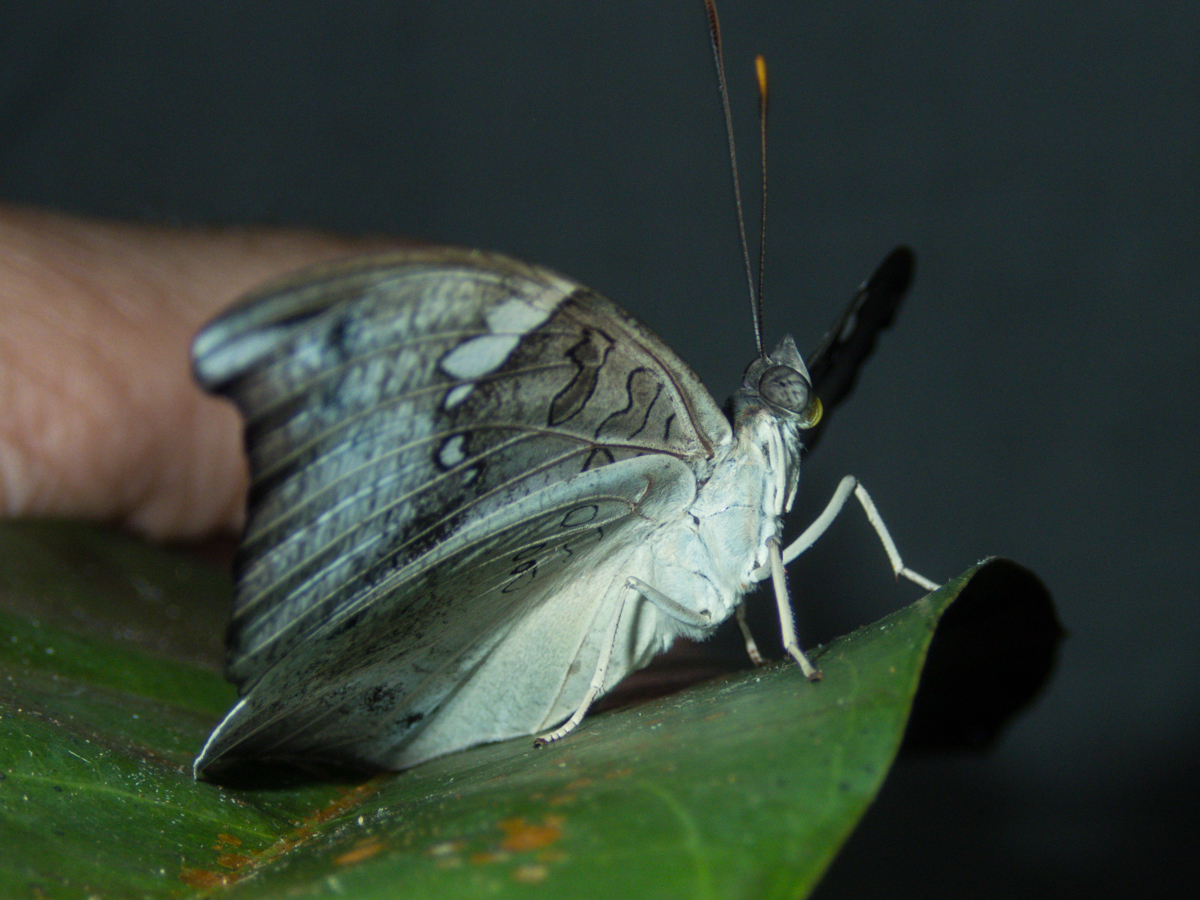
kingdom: Animalia
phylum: Arthropoda
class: Insecta
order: Lepidoptera
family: Nymphalidae
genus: Euthalia
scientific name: Euthalia anosia
